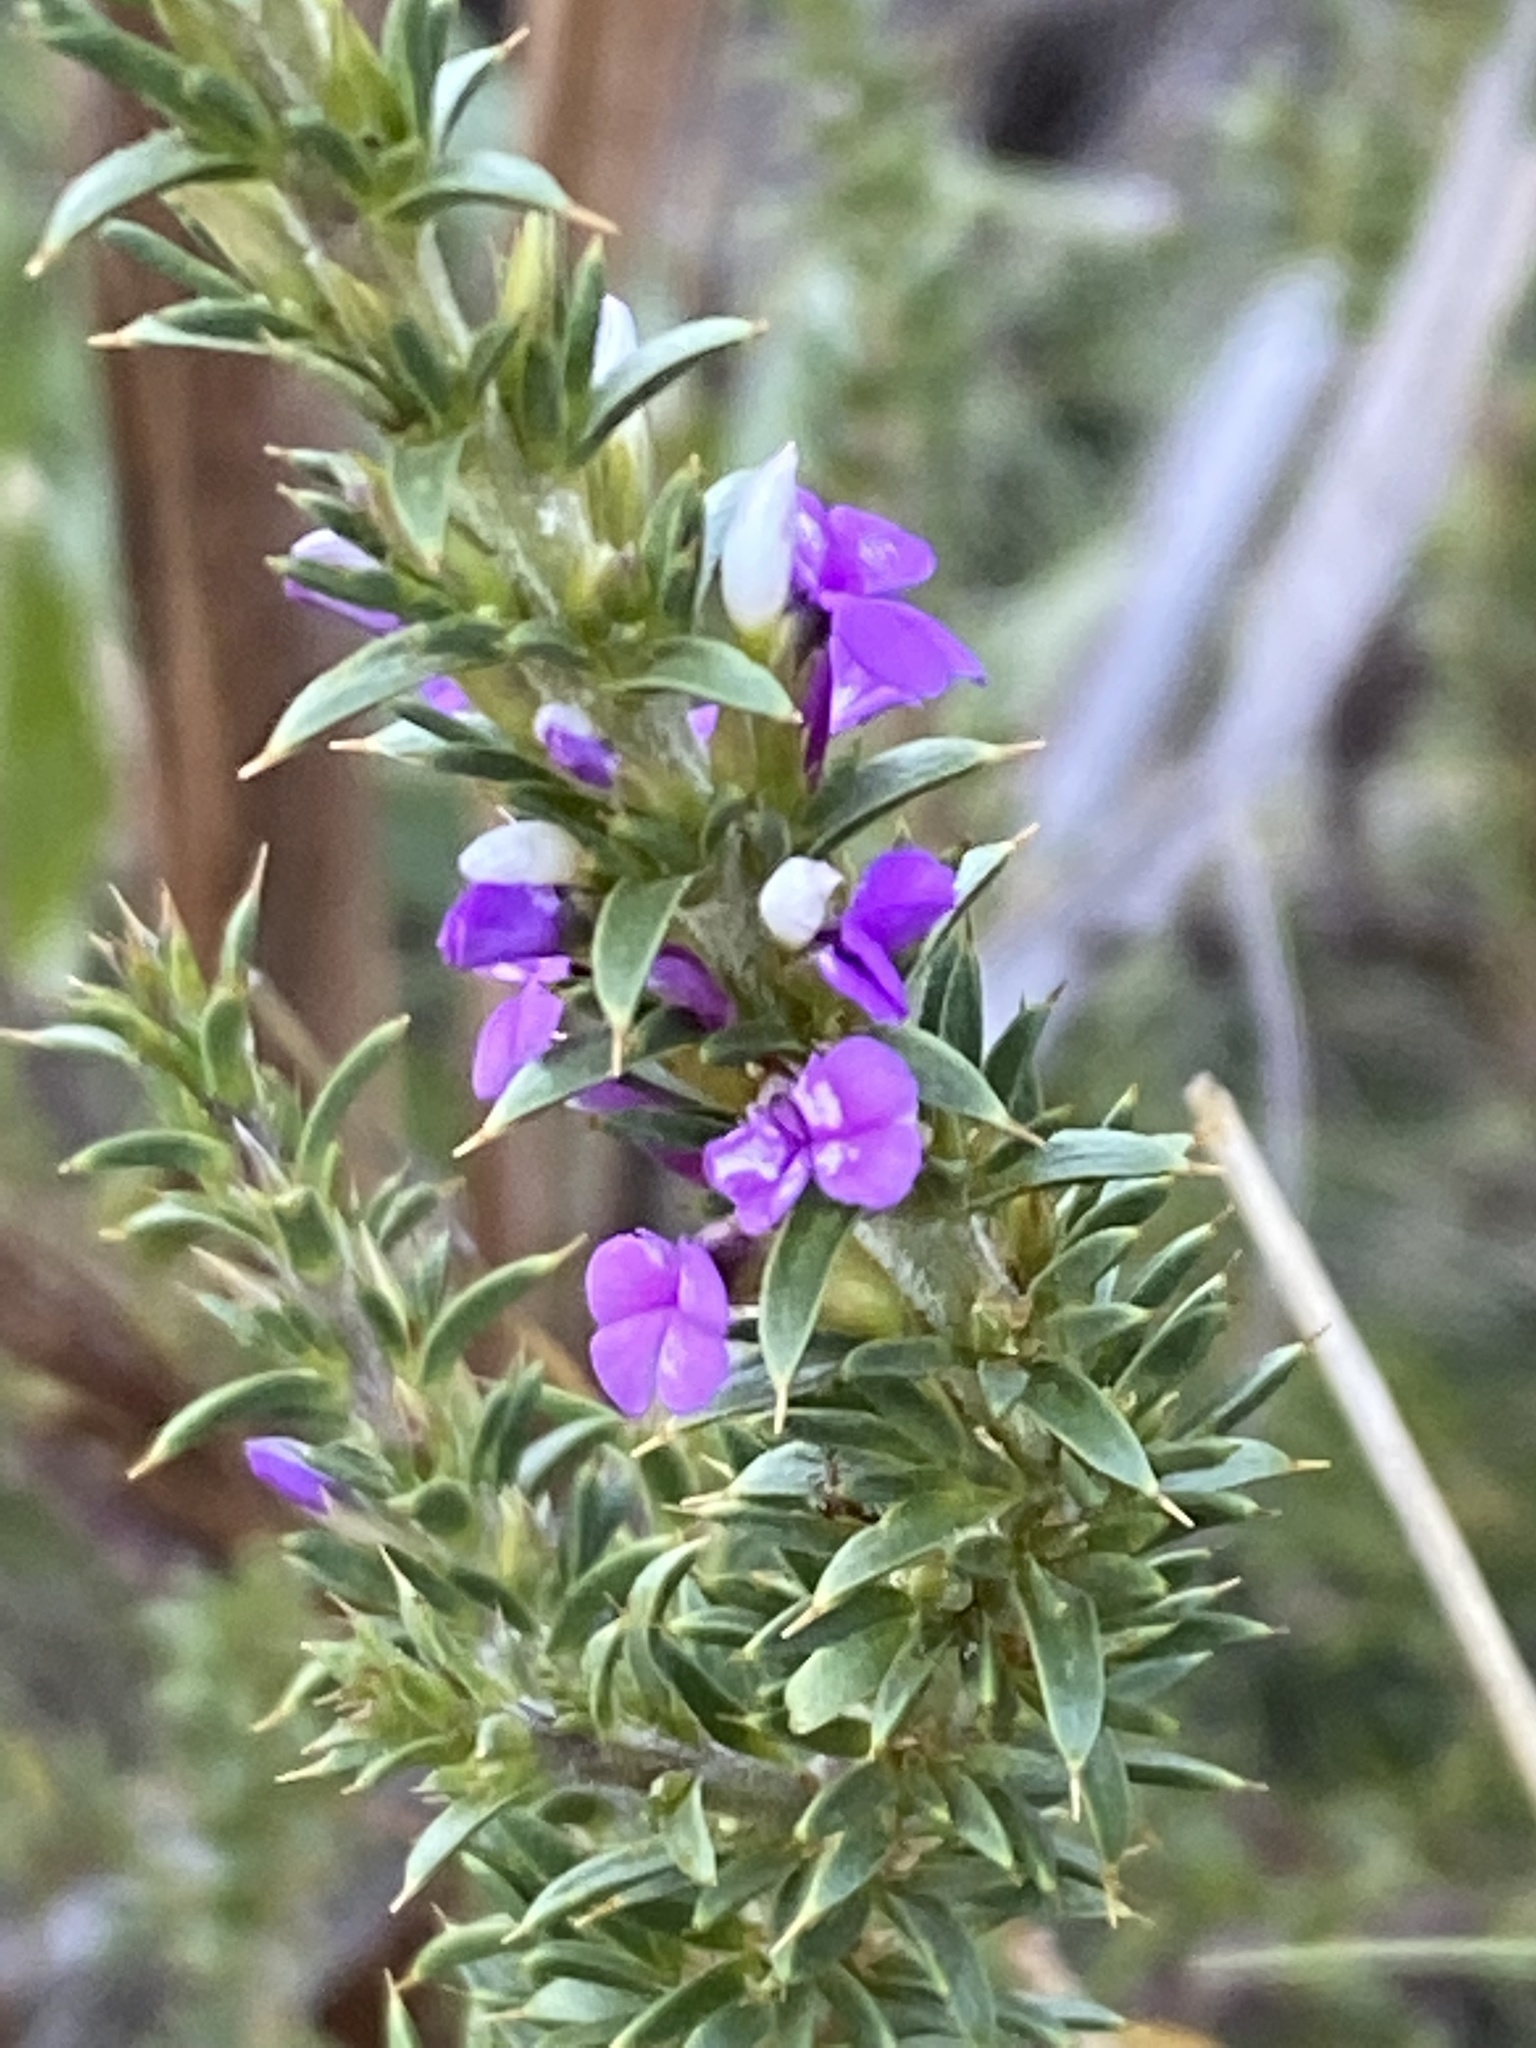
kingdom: Plantae
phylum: Tracheophyta
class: Magnoliopsida
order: Fabales
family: Polygalaceae
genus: Muraltia
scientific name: Muraltia heisteria
